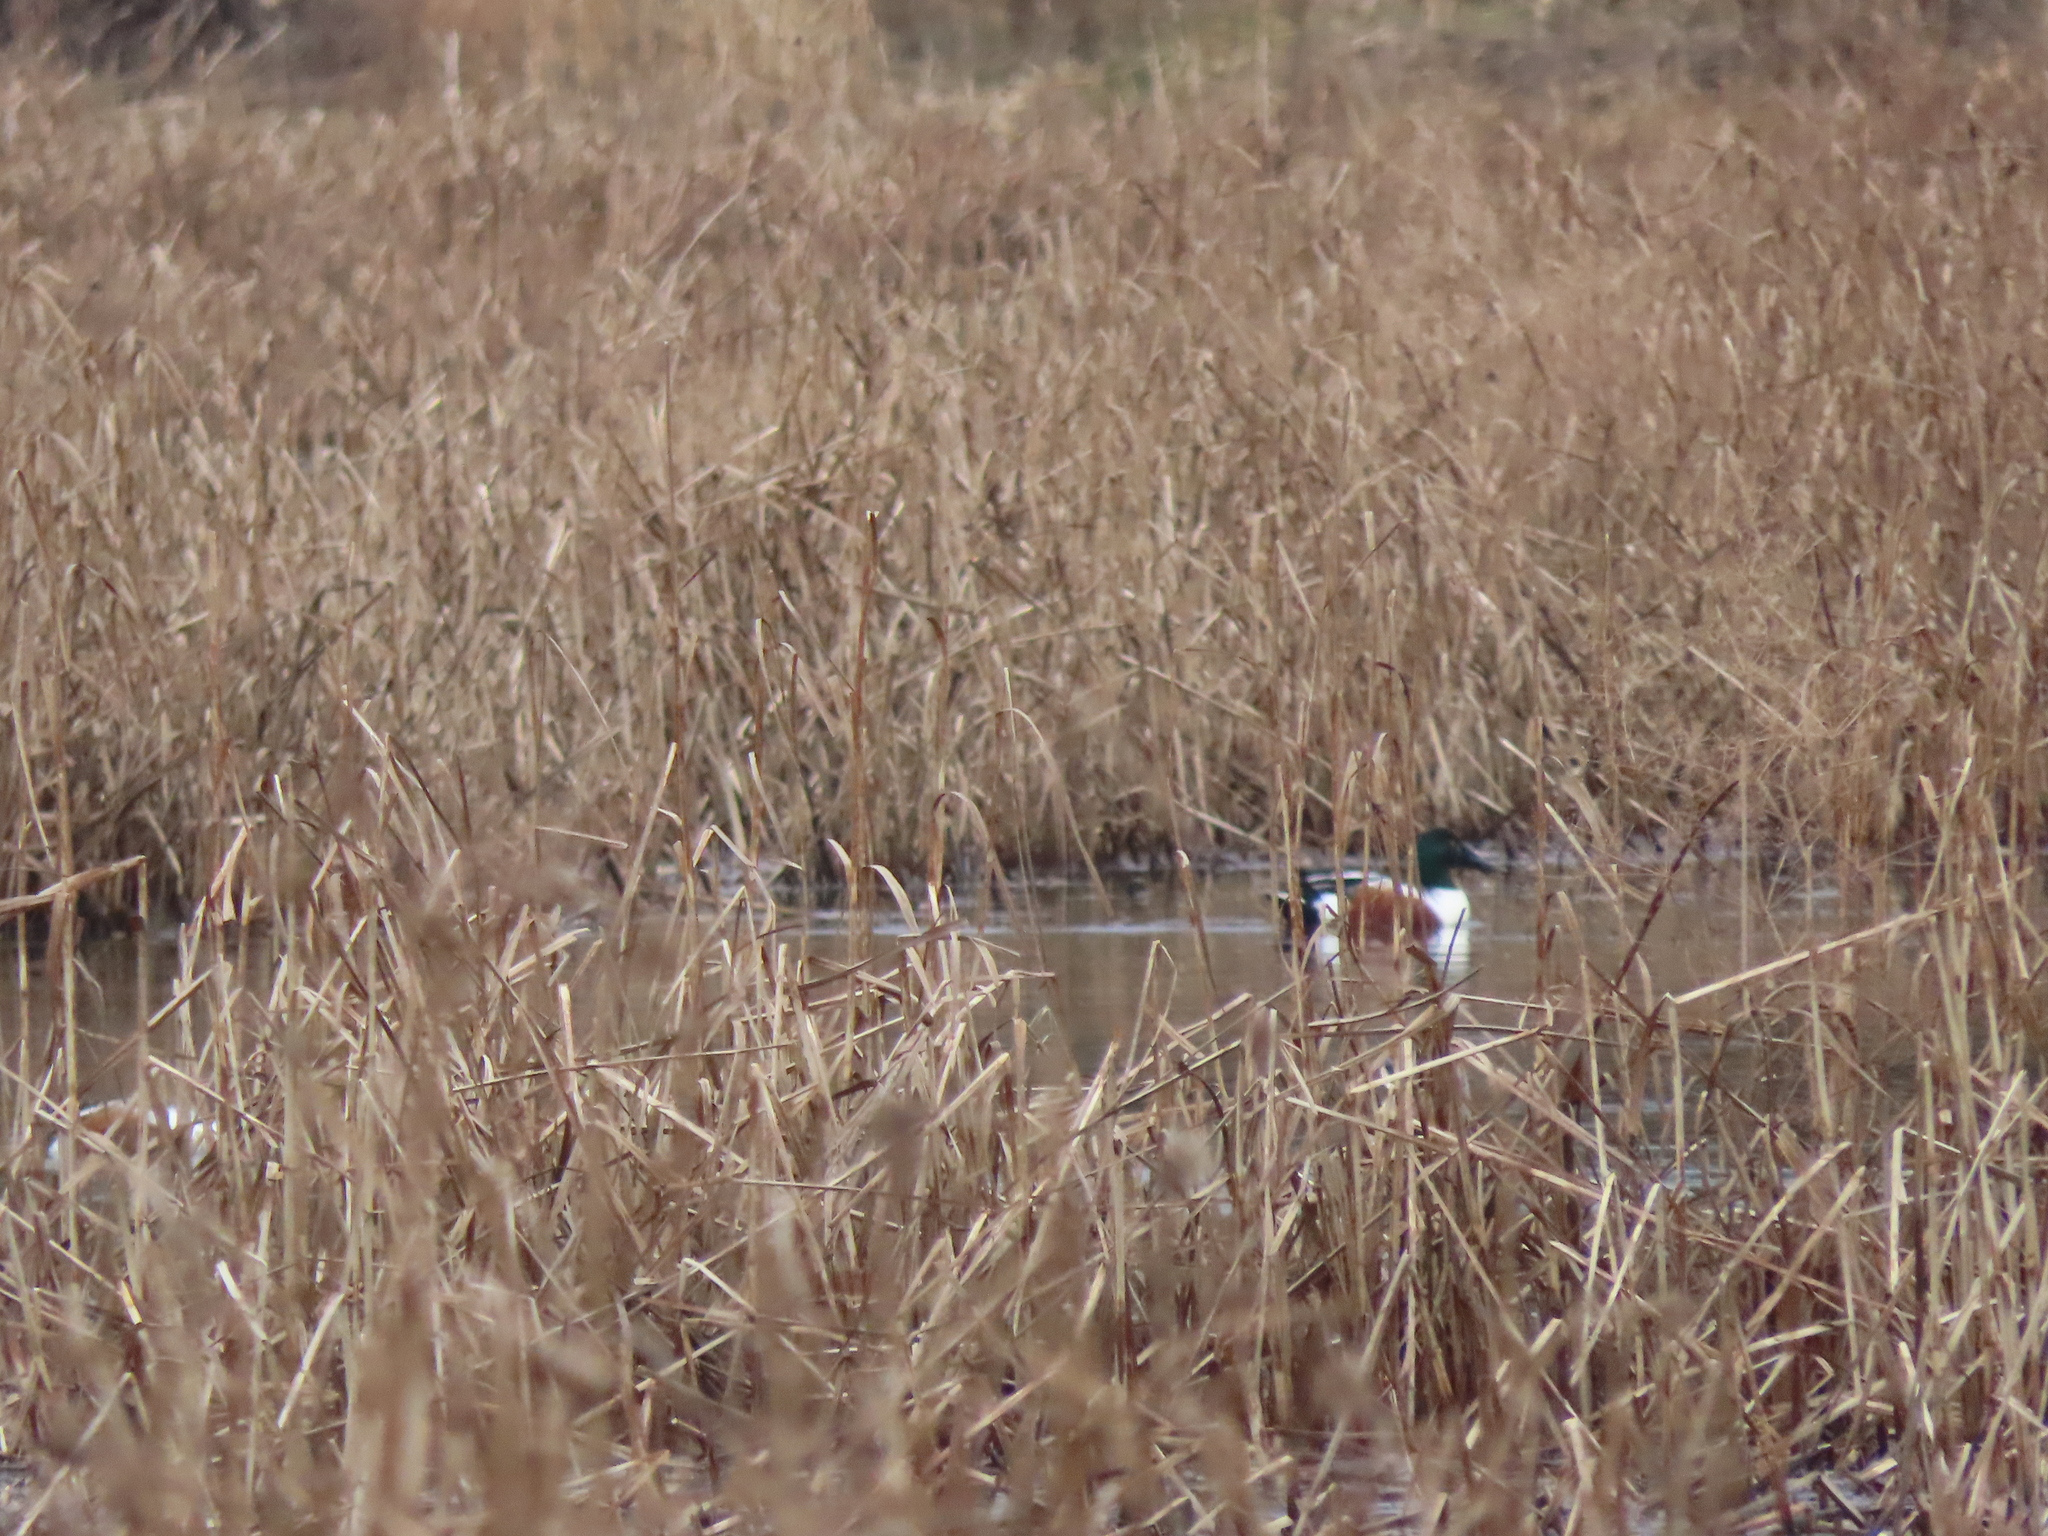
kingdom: Animalia
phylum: Chordata
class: Aves
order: Anseriformes
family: Anatidae
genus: Spatula
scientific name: Spatula clypeata
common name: Northern shoveler
